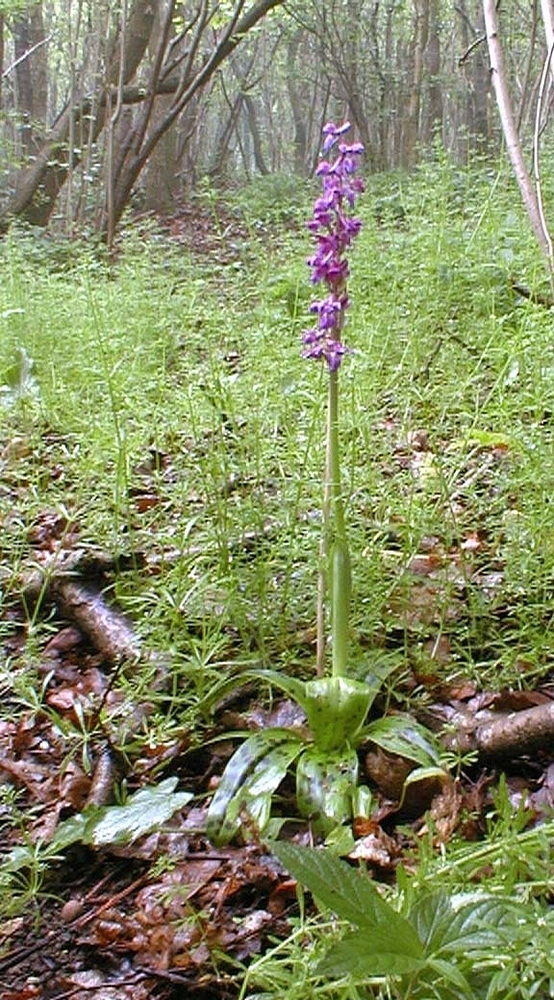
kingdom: Plantae
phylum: Tracheophyta
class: Liliopsida
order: Asparagales
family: Orchidaceae
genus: Orchis
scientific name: Orchis mascula
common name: Early-purple orchid
